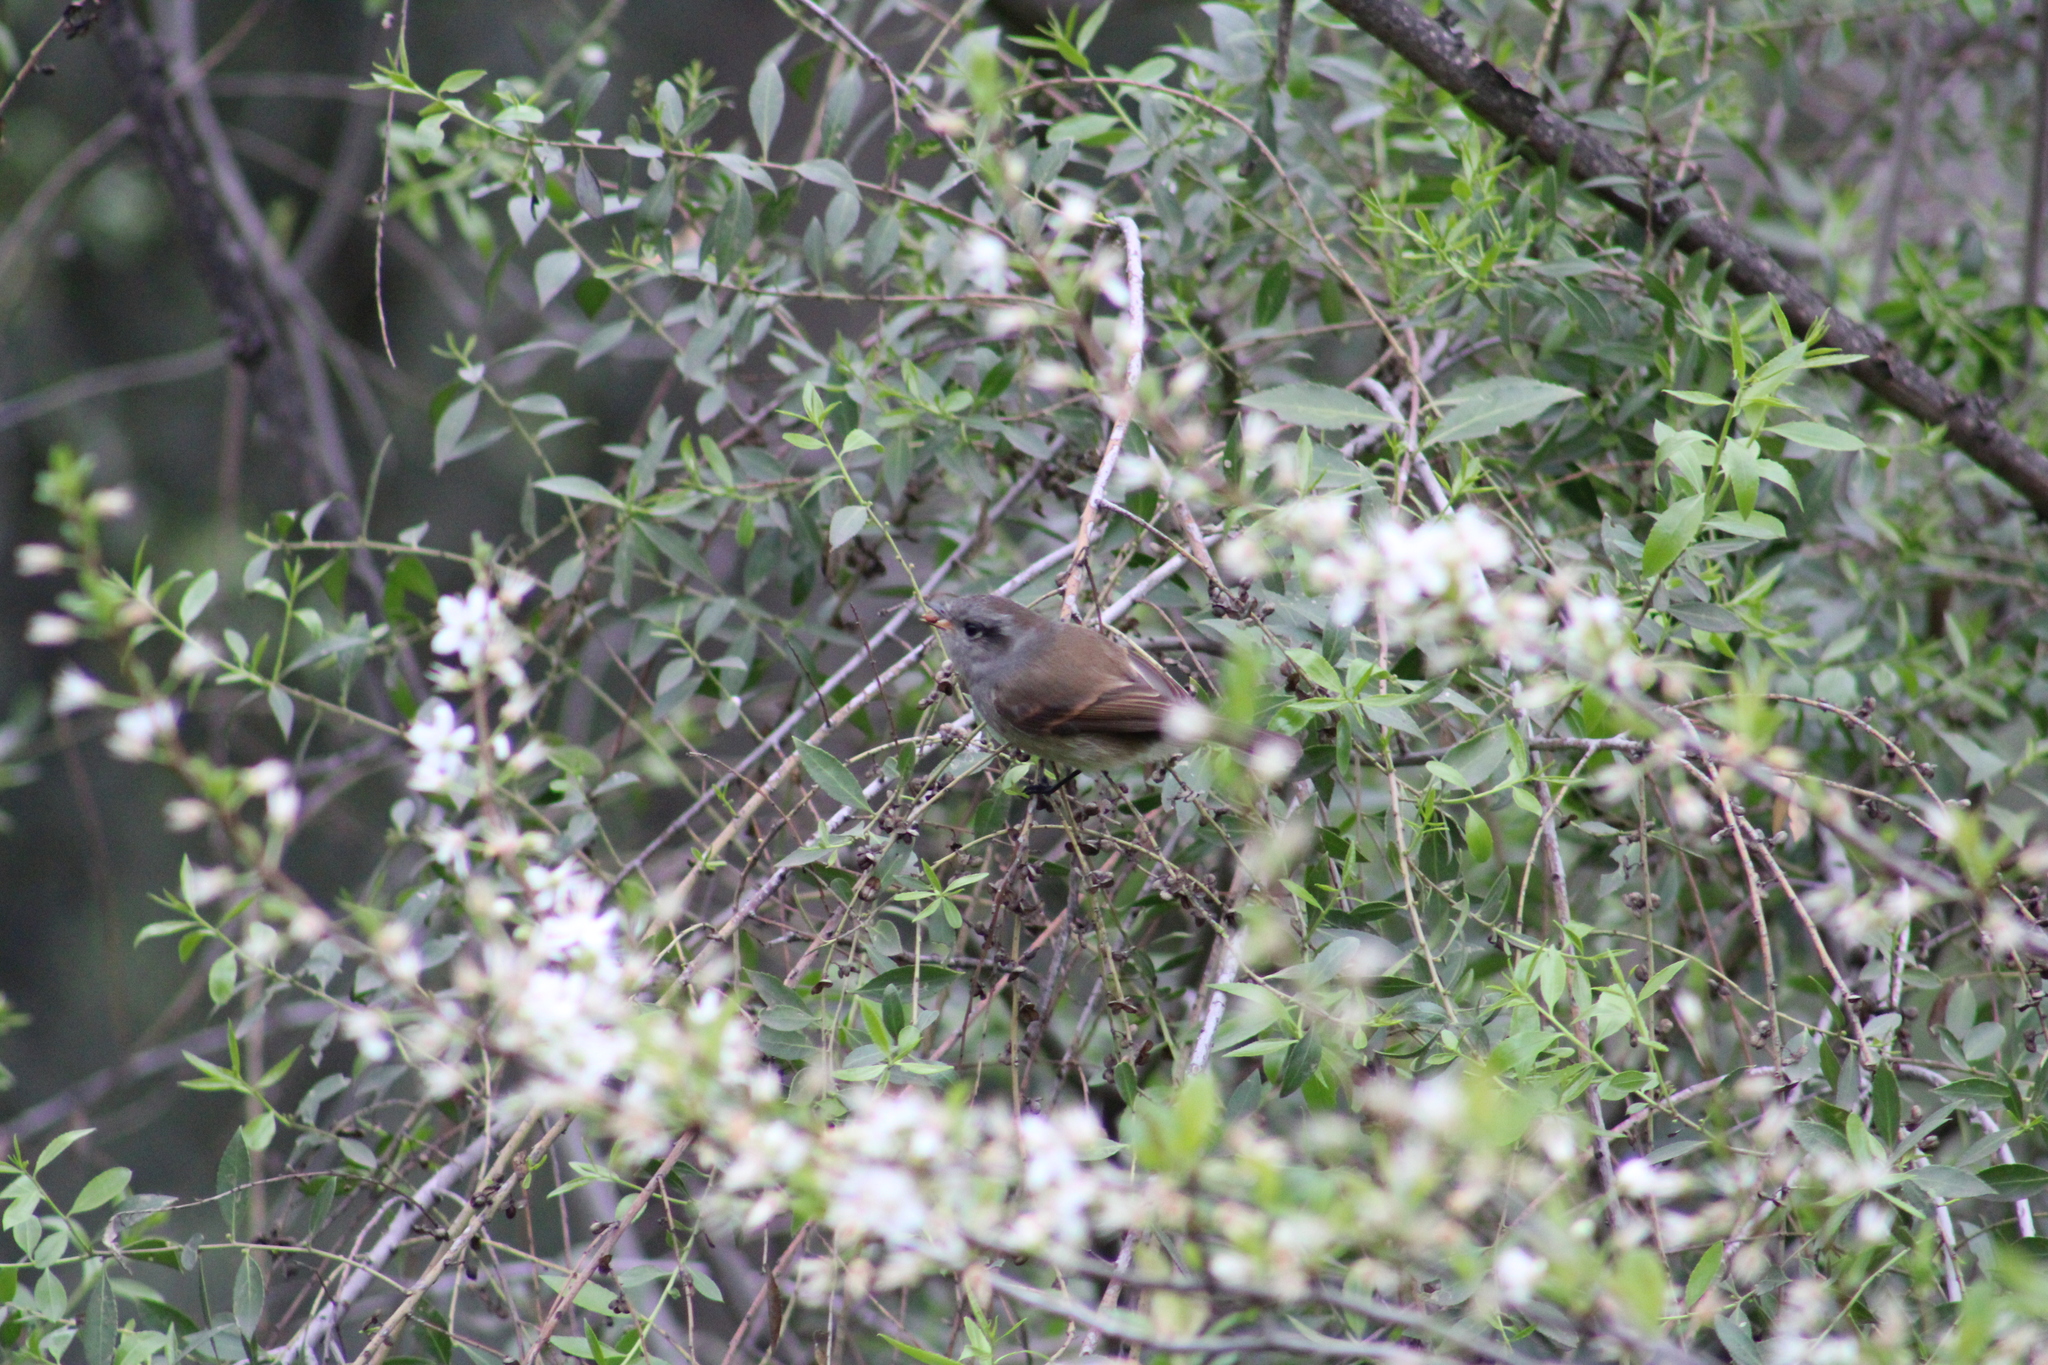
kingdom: Animalia
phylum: Chordata
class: Aves
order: Passeriformes
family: Tyrannidae
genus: Colorhamphus
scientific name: Colorhamphus parvirostris
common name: Patagonian tyrant
